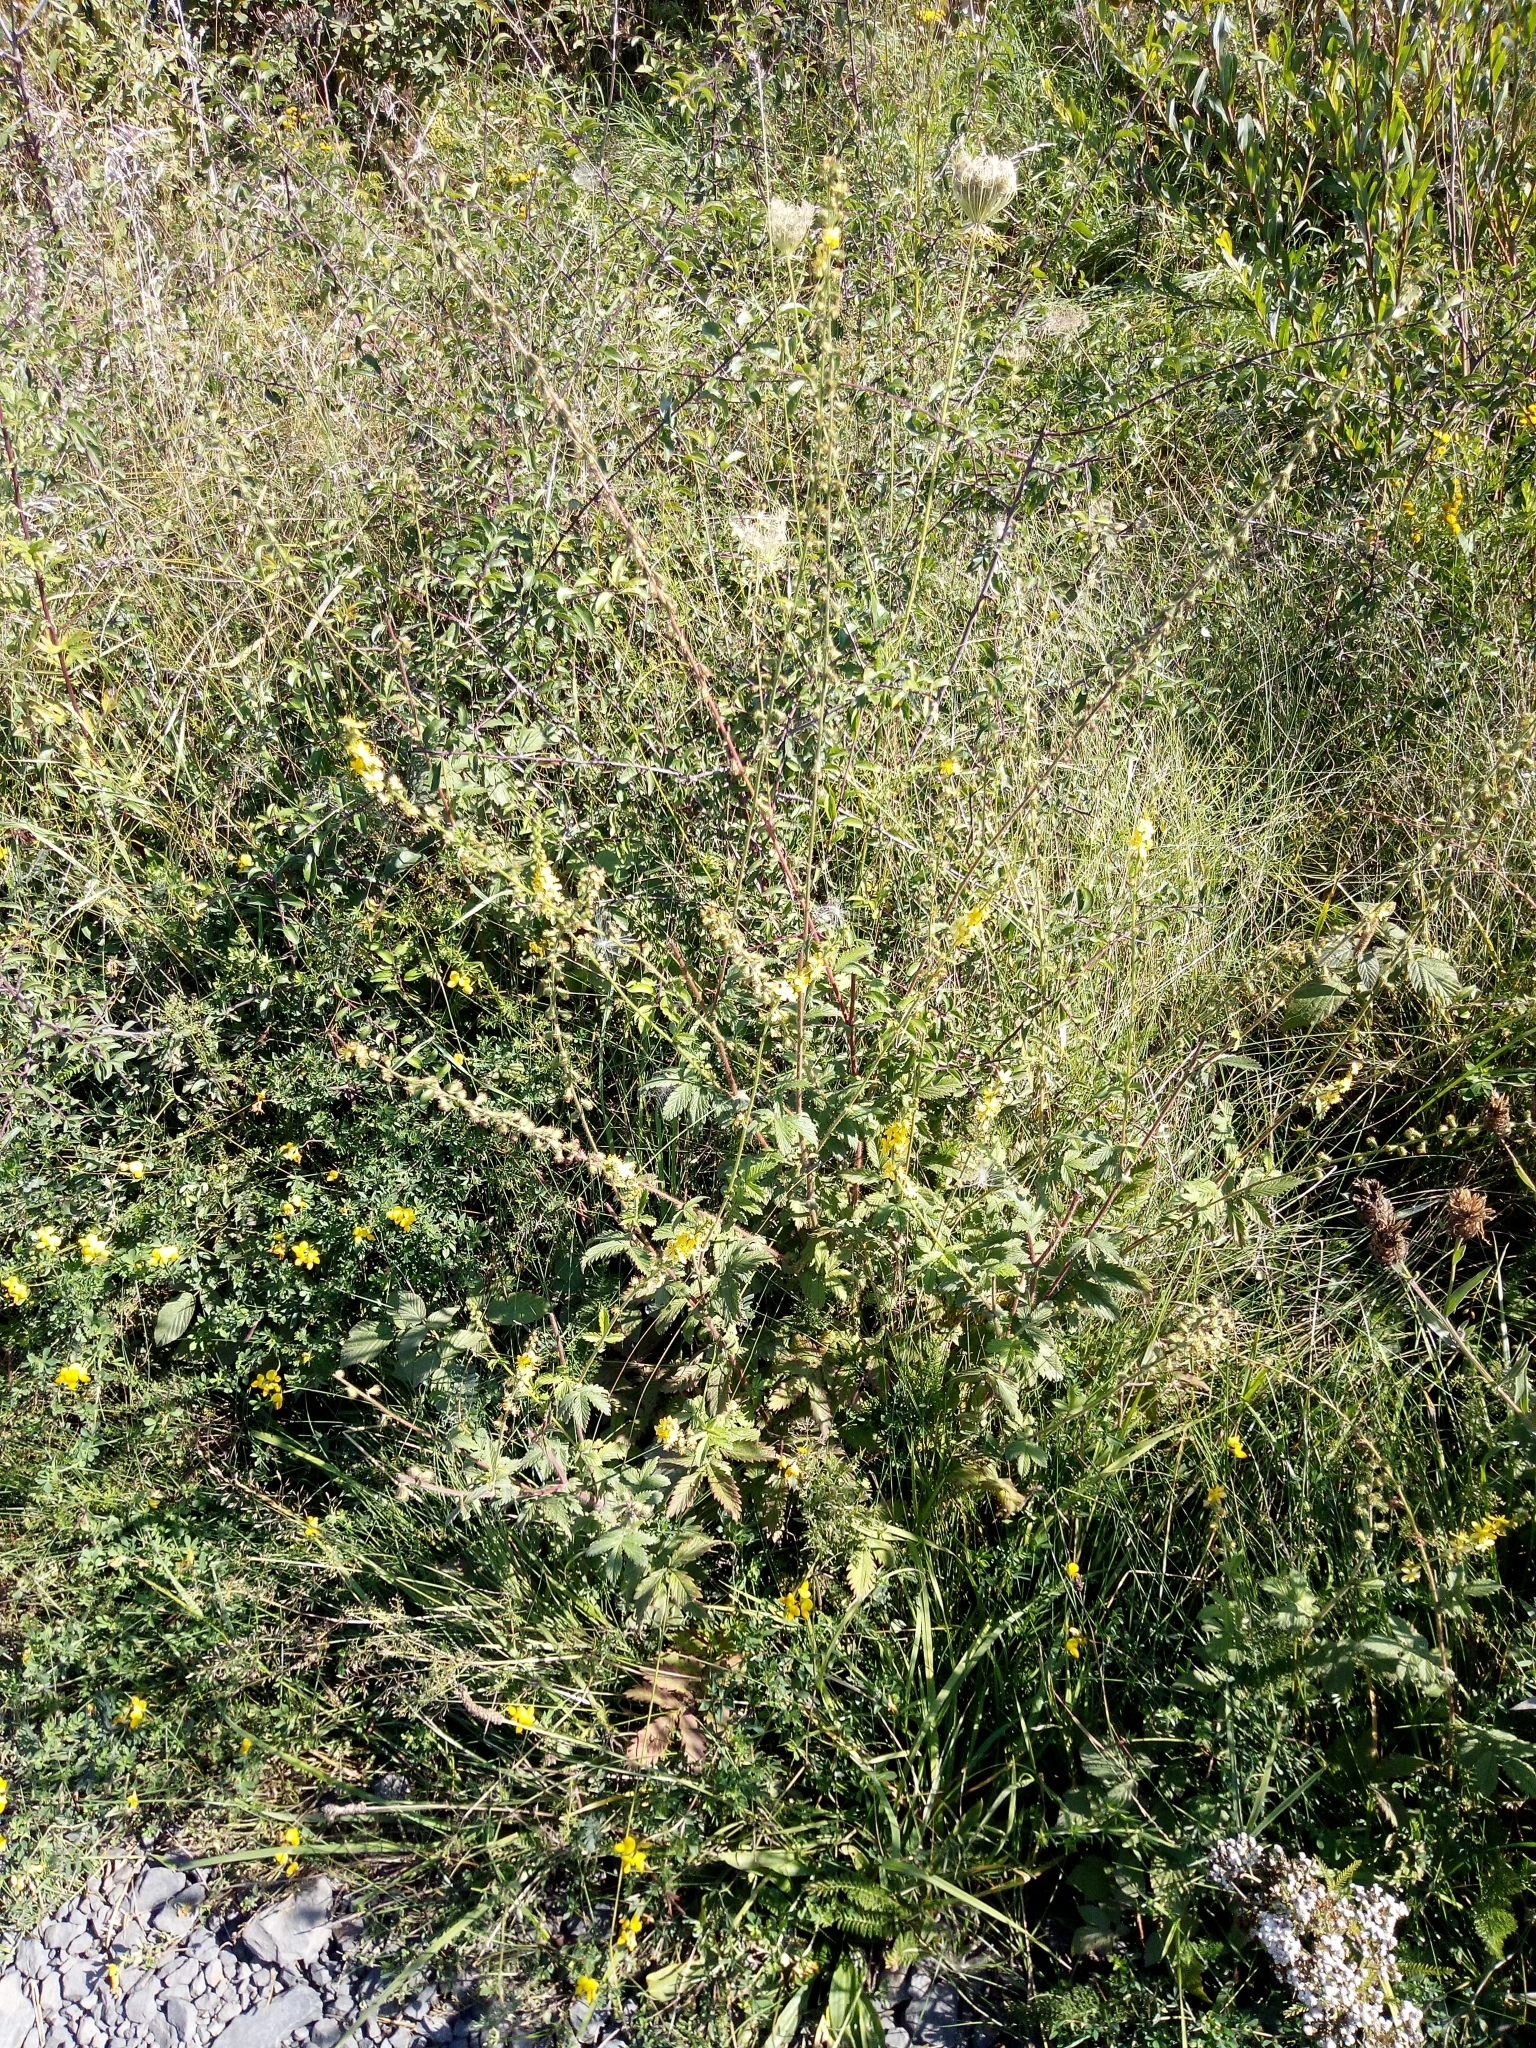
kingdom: Plantae
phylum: Tracheophyta
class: Magnoliopsida
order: Rosales
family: Rosaceae
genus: Agrimonia
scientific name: Agrimonia eupatoria
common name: Agrimony
